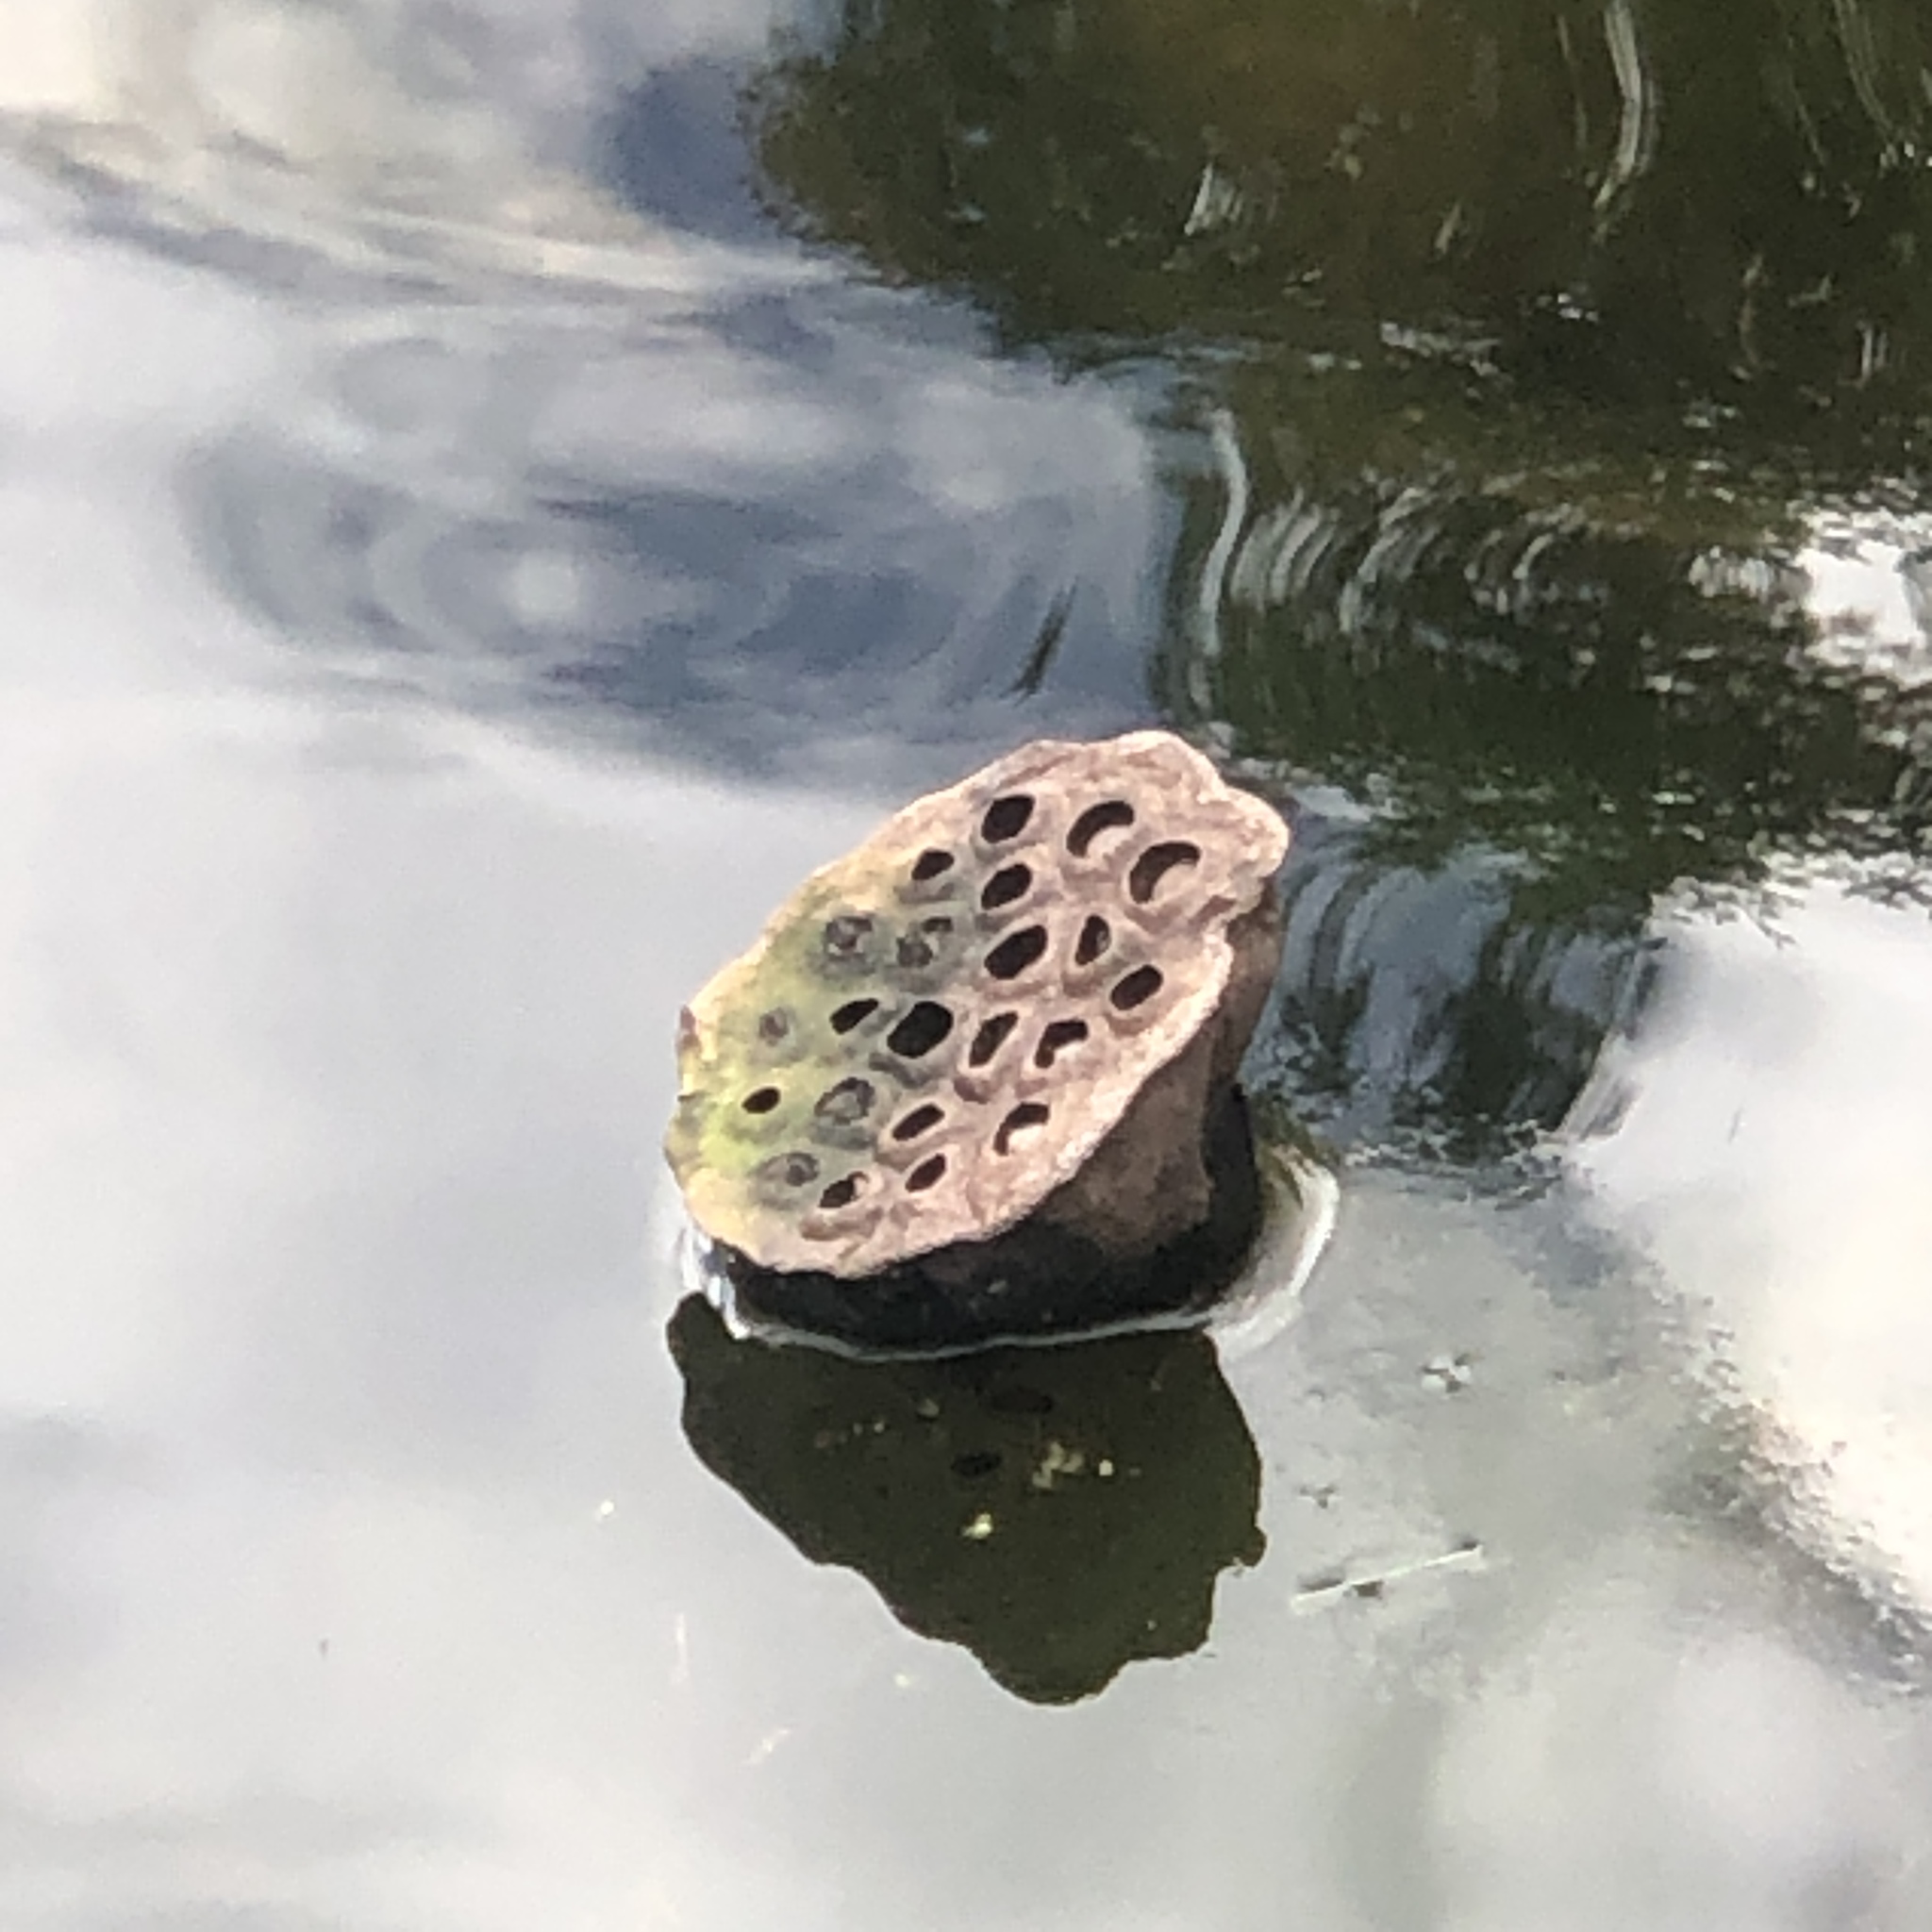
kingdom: Plantae
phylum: Tracheophyta
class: Magnoliopsida
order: Proteales
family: Nelumbonaceae
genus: Nelumbo
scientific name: Nelumbo lutea
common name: American lotus
